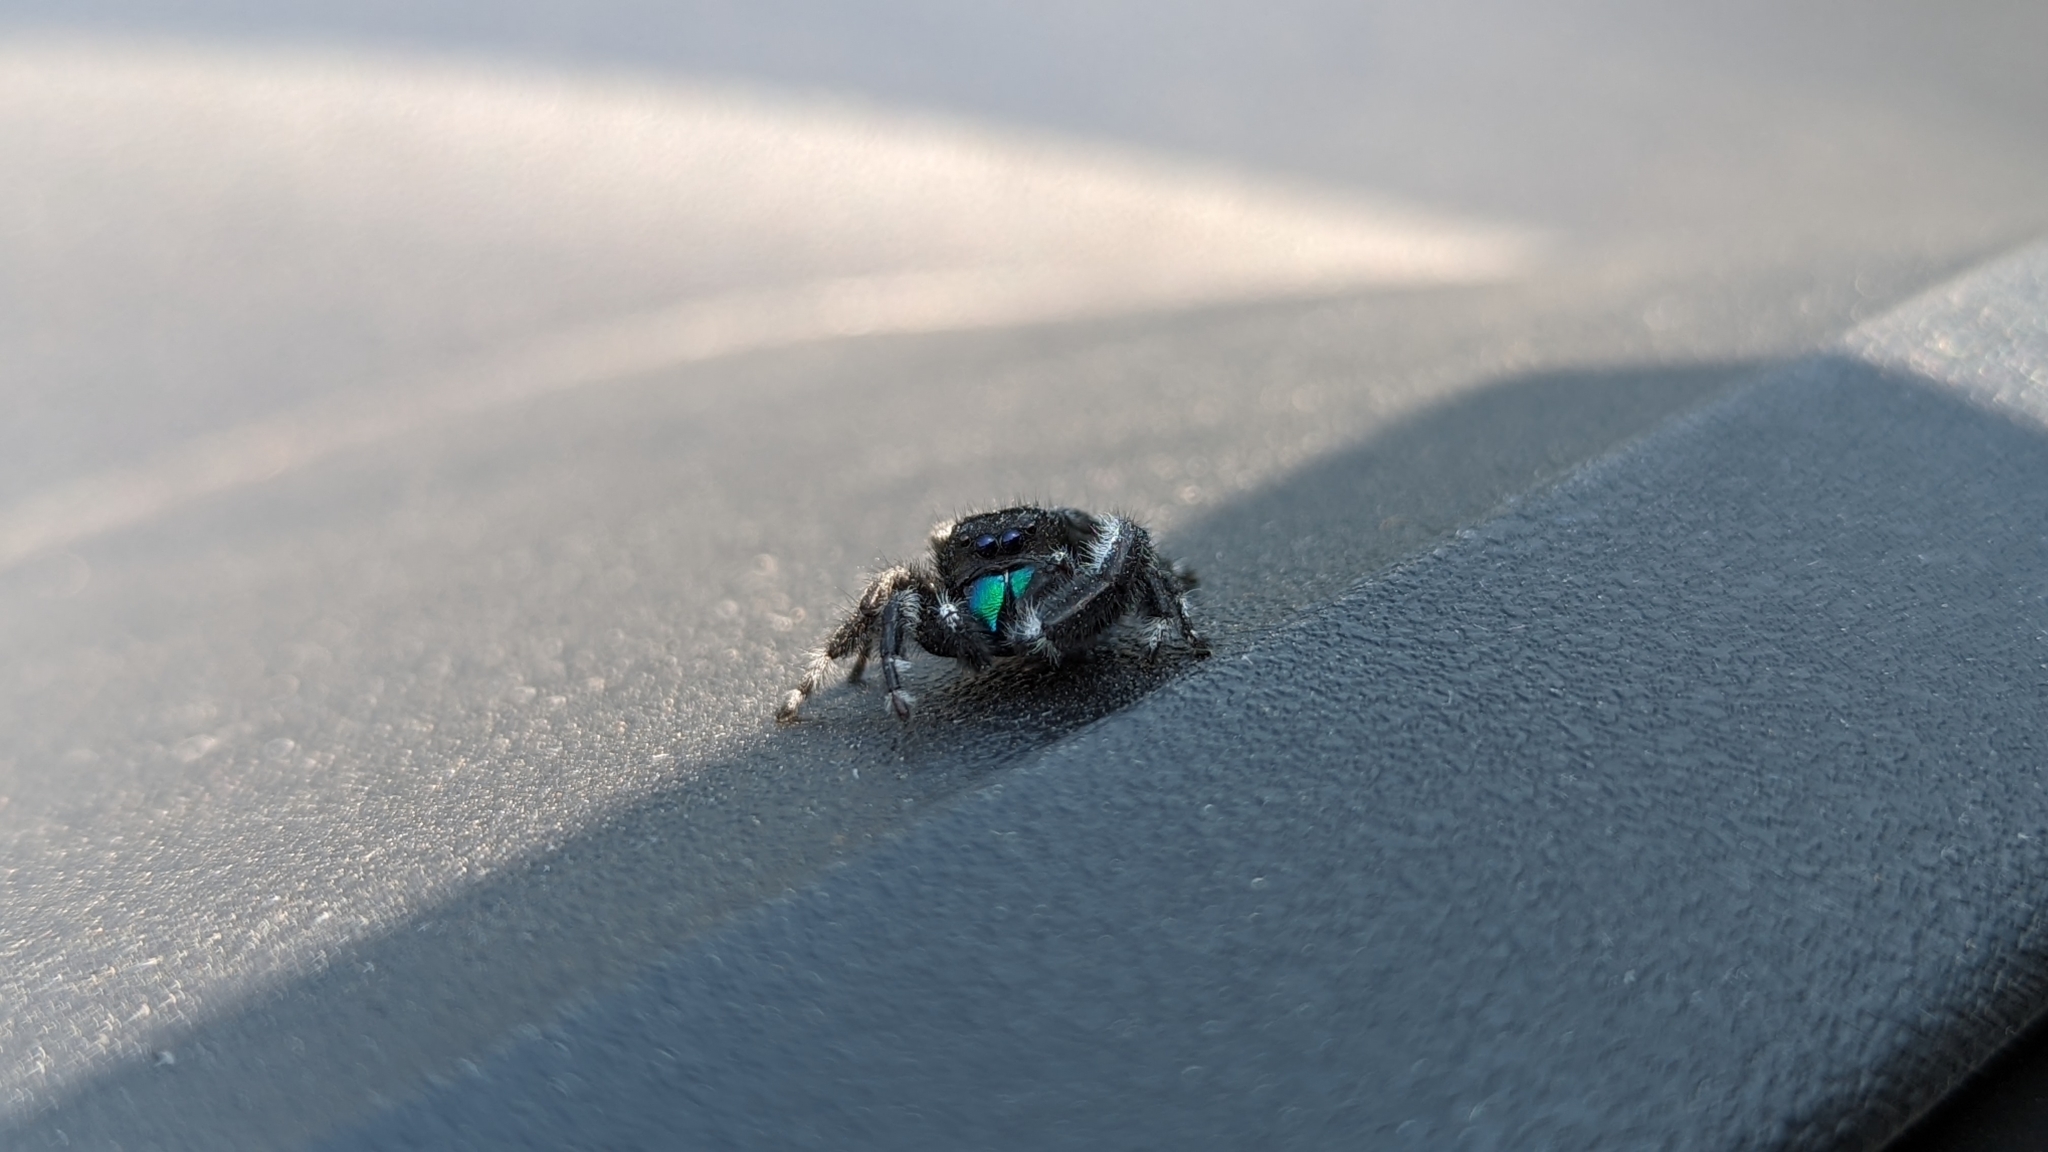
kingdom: Animalia
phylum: Arthropoda
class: Arachnida
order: Araneae
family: Salticidae
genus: Phidippus
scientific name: Phidippus audax
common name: Bold jumper
